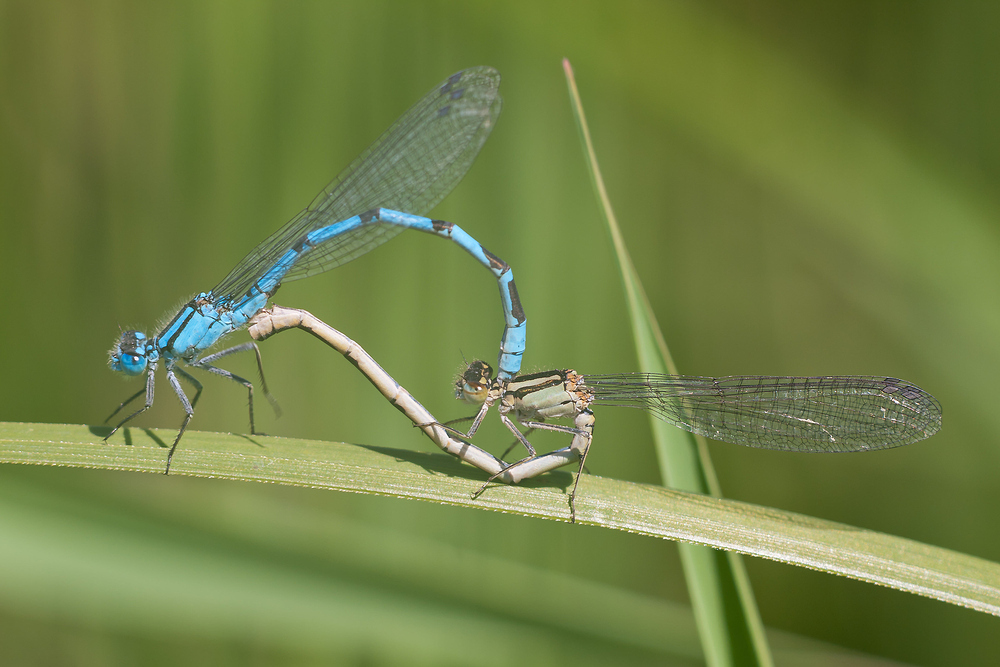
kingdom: Animalia
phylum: Arthropoda
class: Insecta
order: Odonata
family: Coenagrionidae
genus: Enallagma
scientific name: Enallagma cyathigerum
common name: Common blue damselfly
